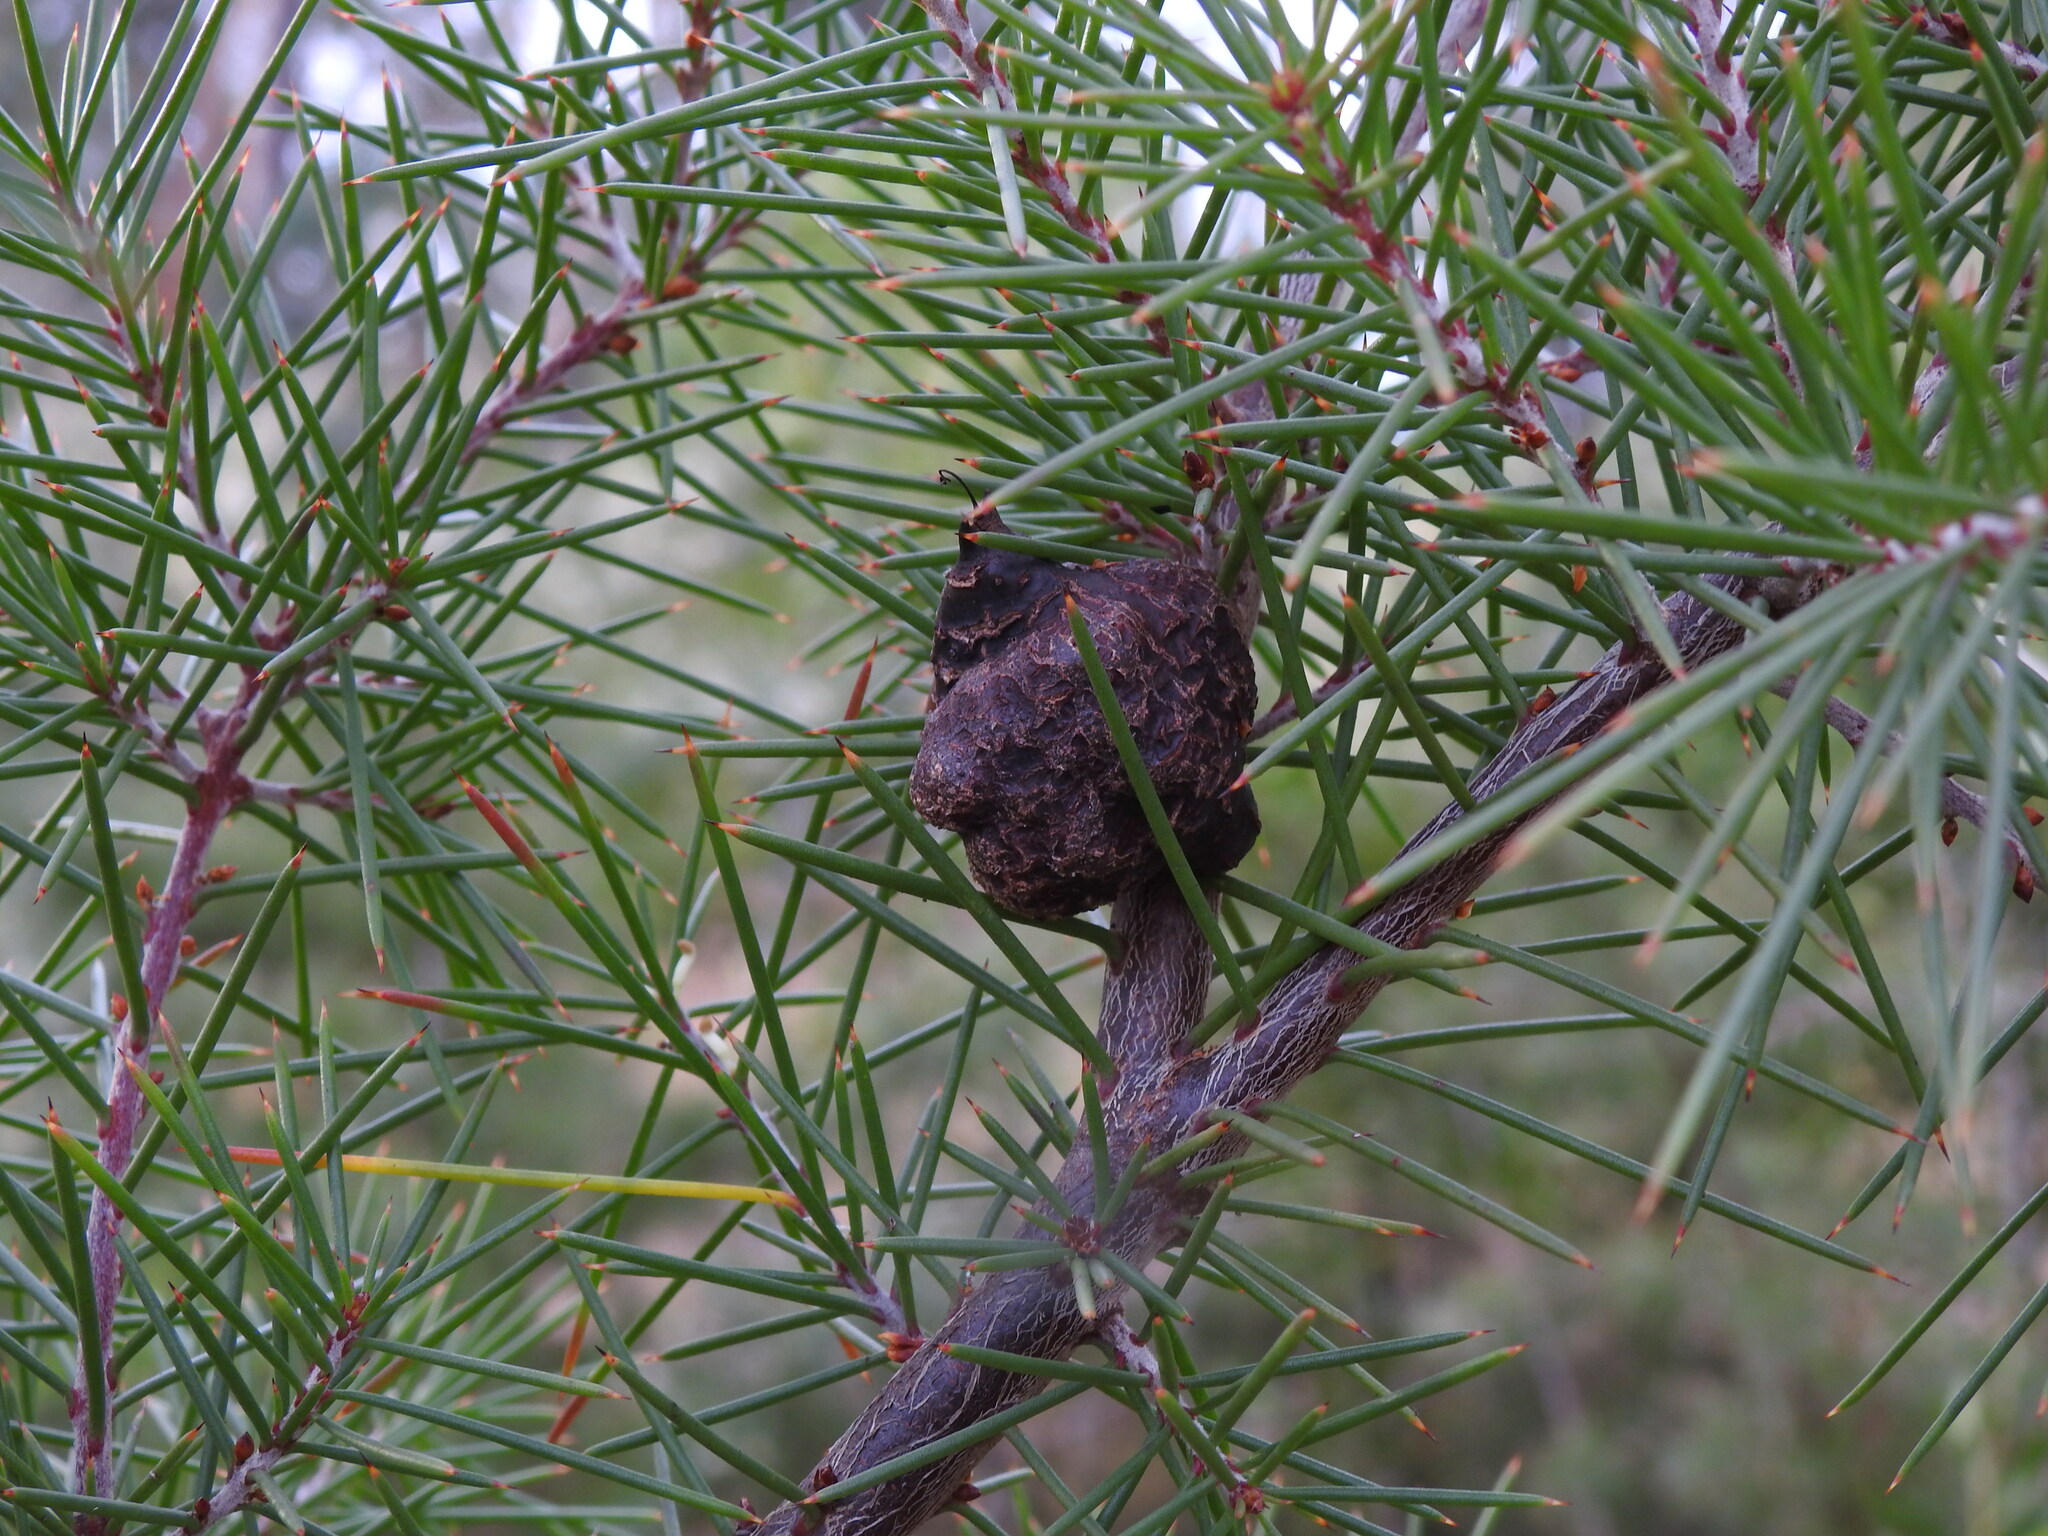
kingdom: Plantae
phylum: Tracheophyta
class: Magnoliopsida
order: Proteales
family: Proteaceae
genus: Hakea
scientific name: Hakea decurrens
